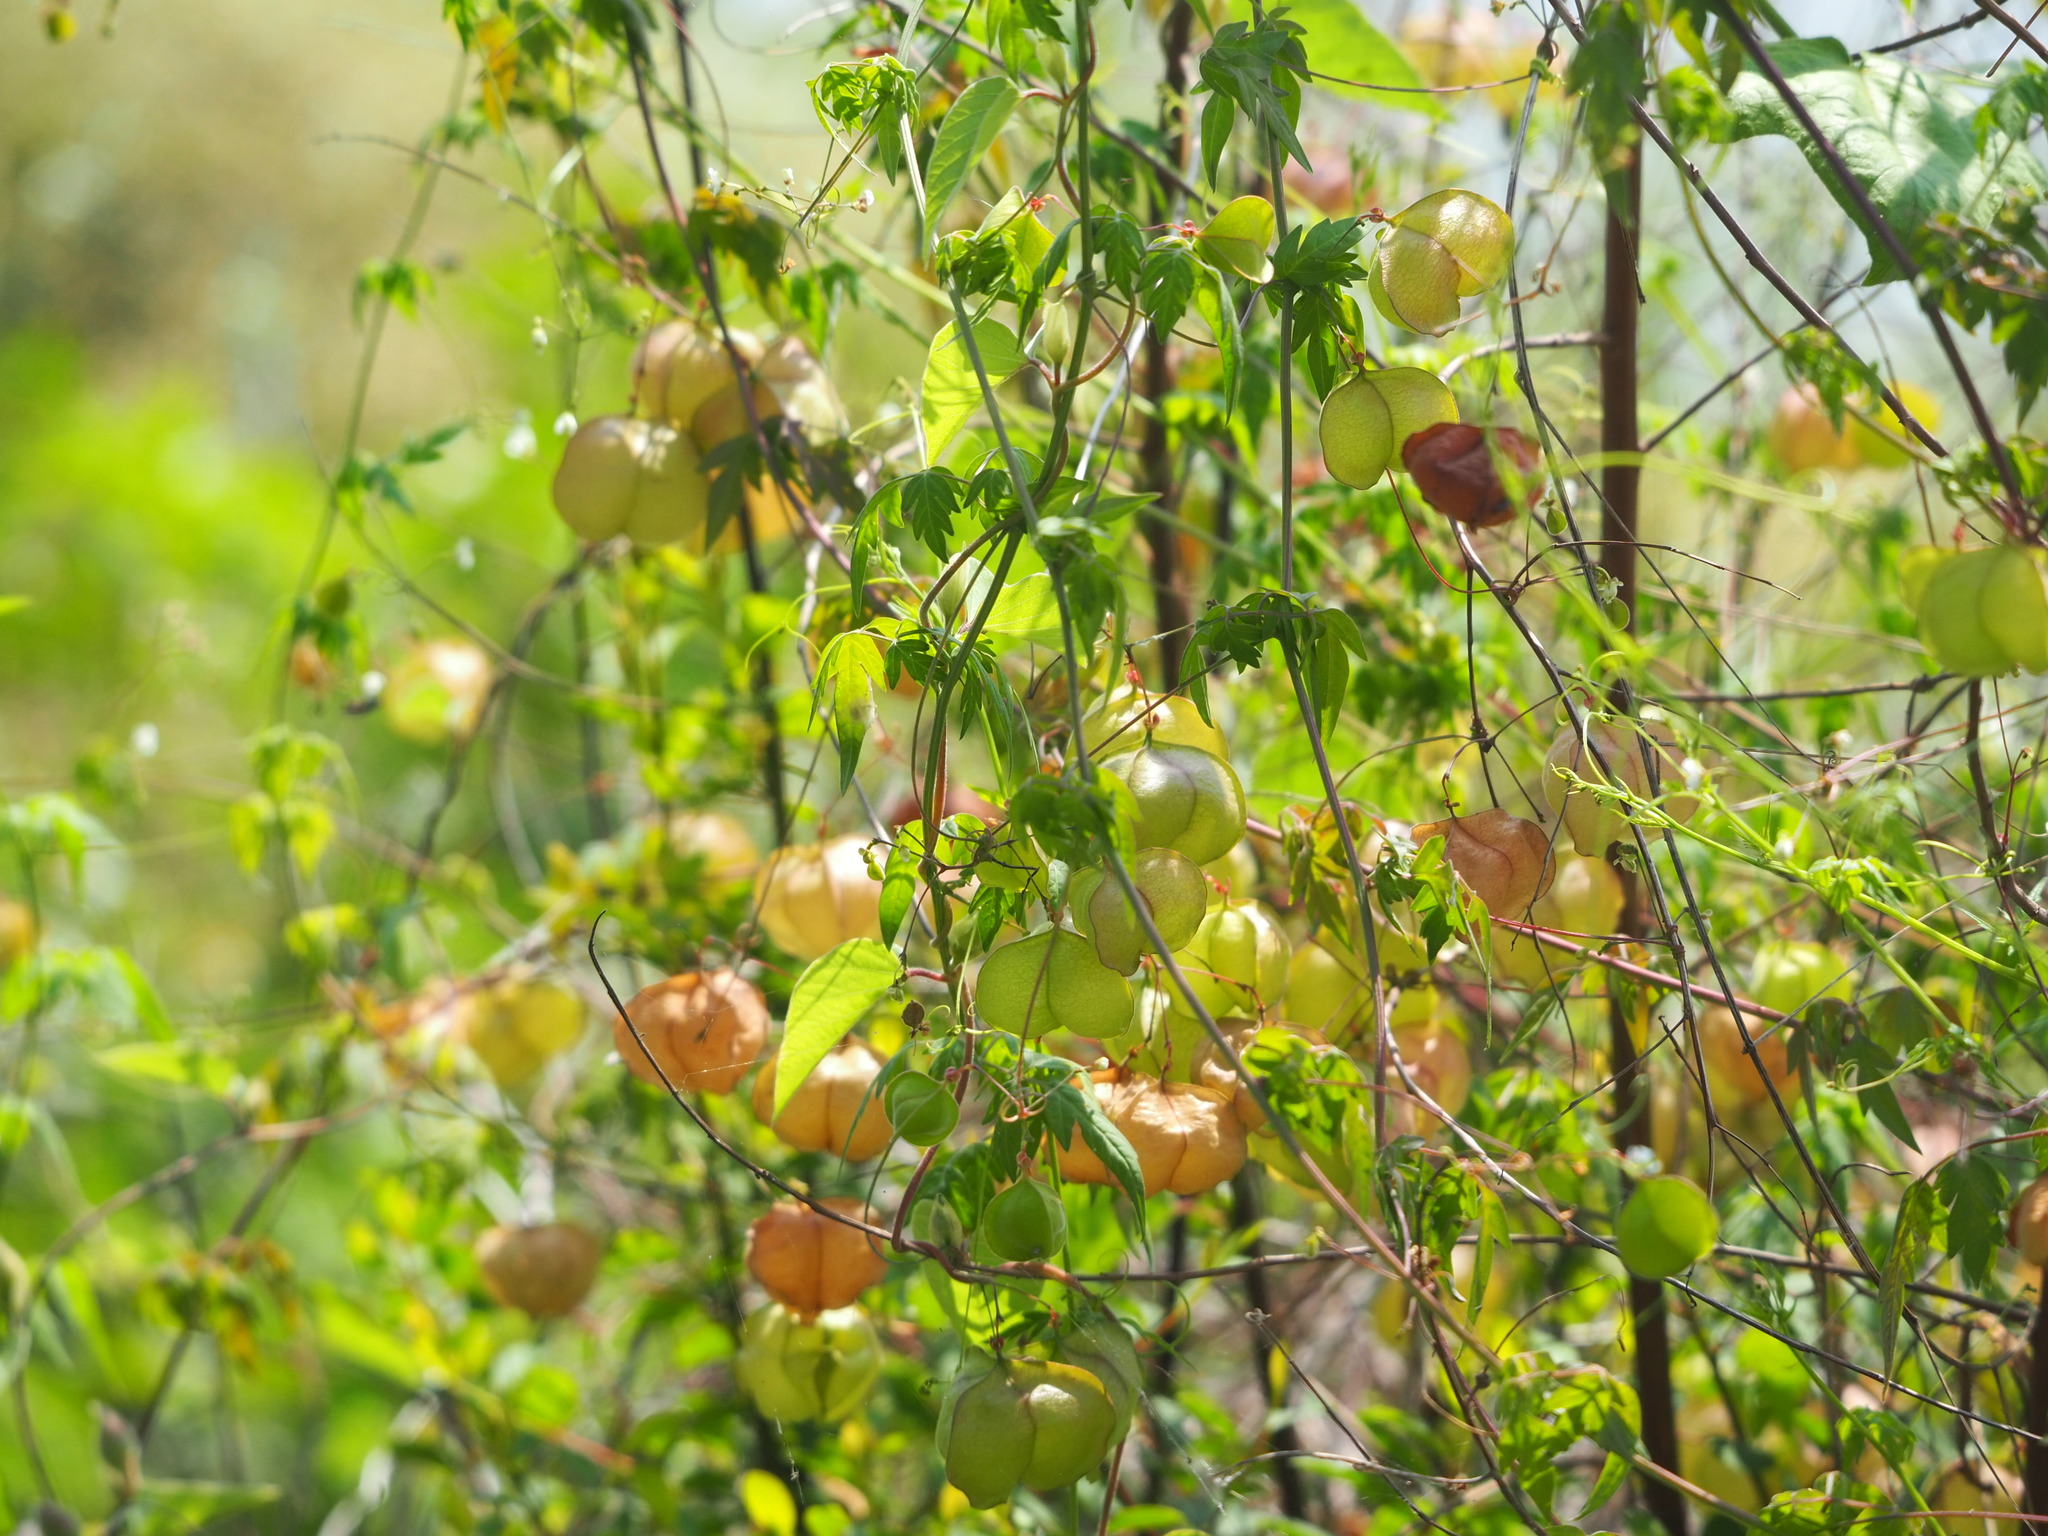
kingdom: Plantae
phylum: Tracheophyta
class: Magnoliopsida
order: Sapindales
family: Sapindaceae
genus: Cardiospermum
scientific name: Cardiospermum halicacabum
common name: Balloon vine
